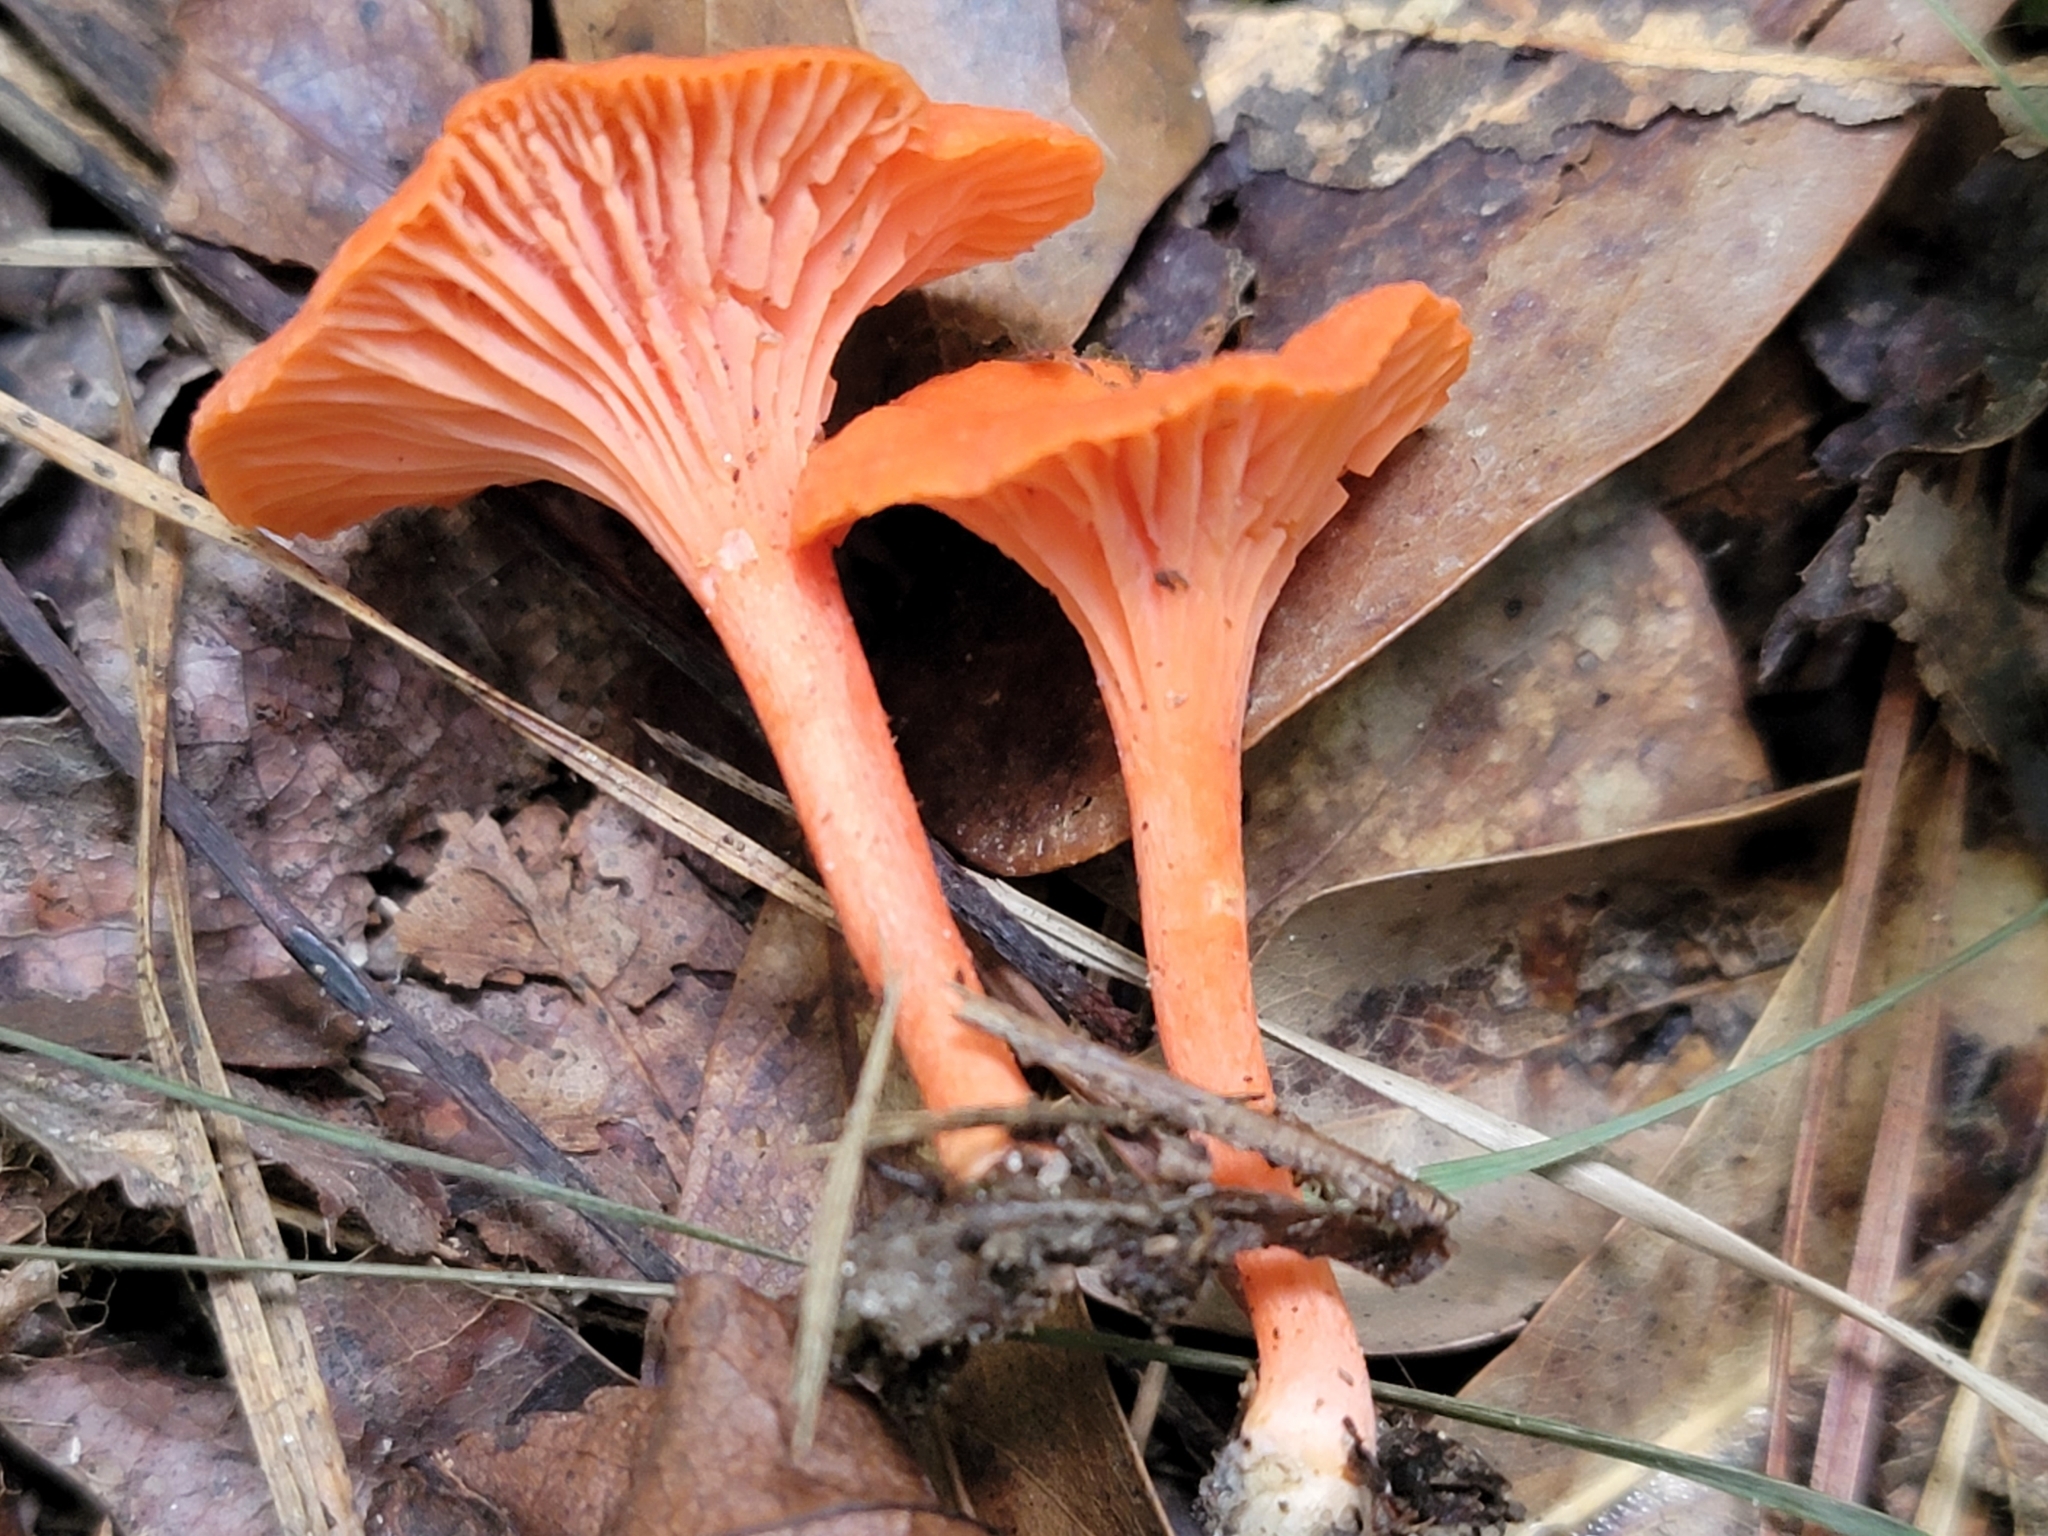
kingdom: Fungi
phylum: Basidiomycota
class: Agaricomycetes
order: Cantharellales
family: Hydnaceae
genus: Cantharellus
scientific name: Cantharellus cinnabarinus
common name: Cinnabar chanterelle
